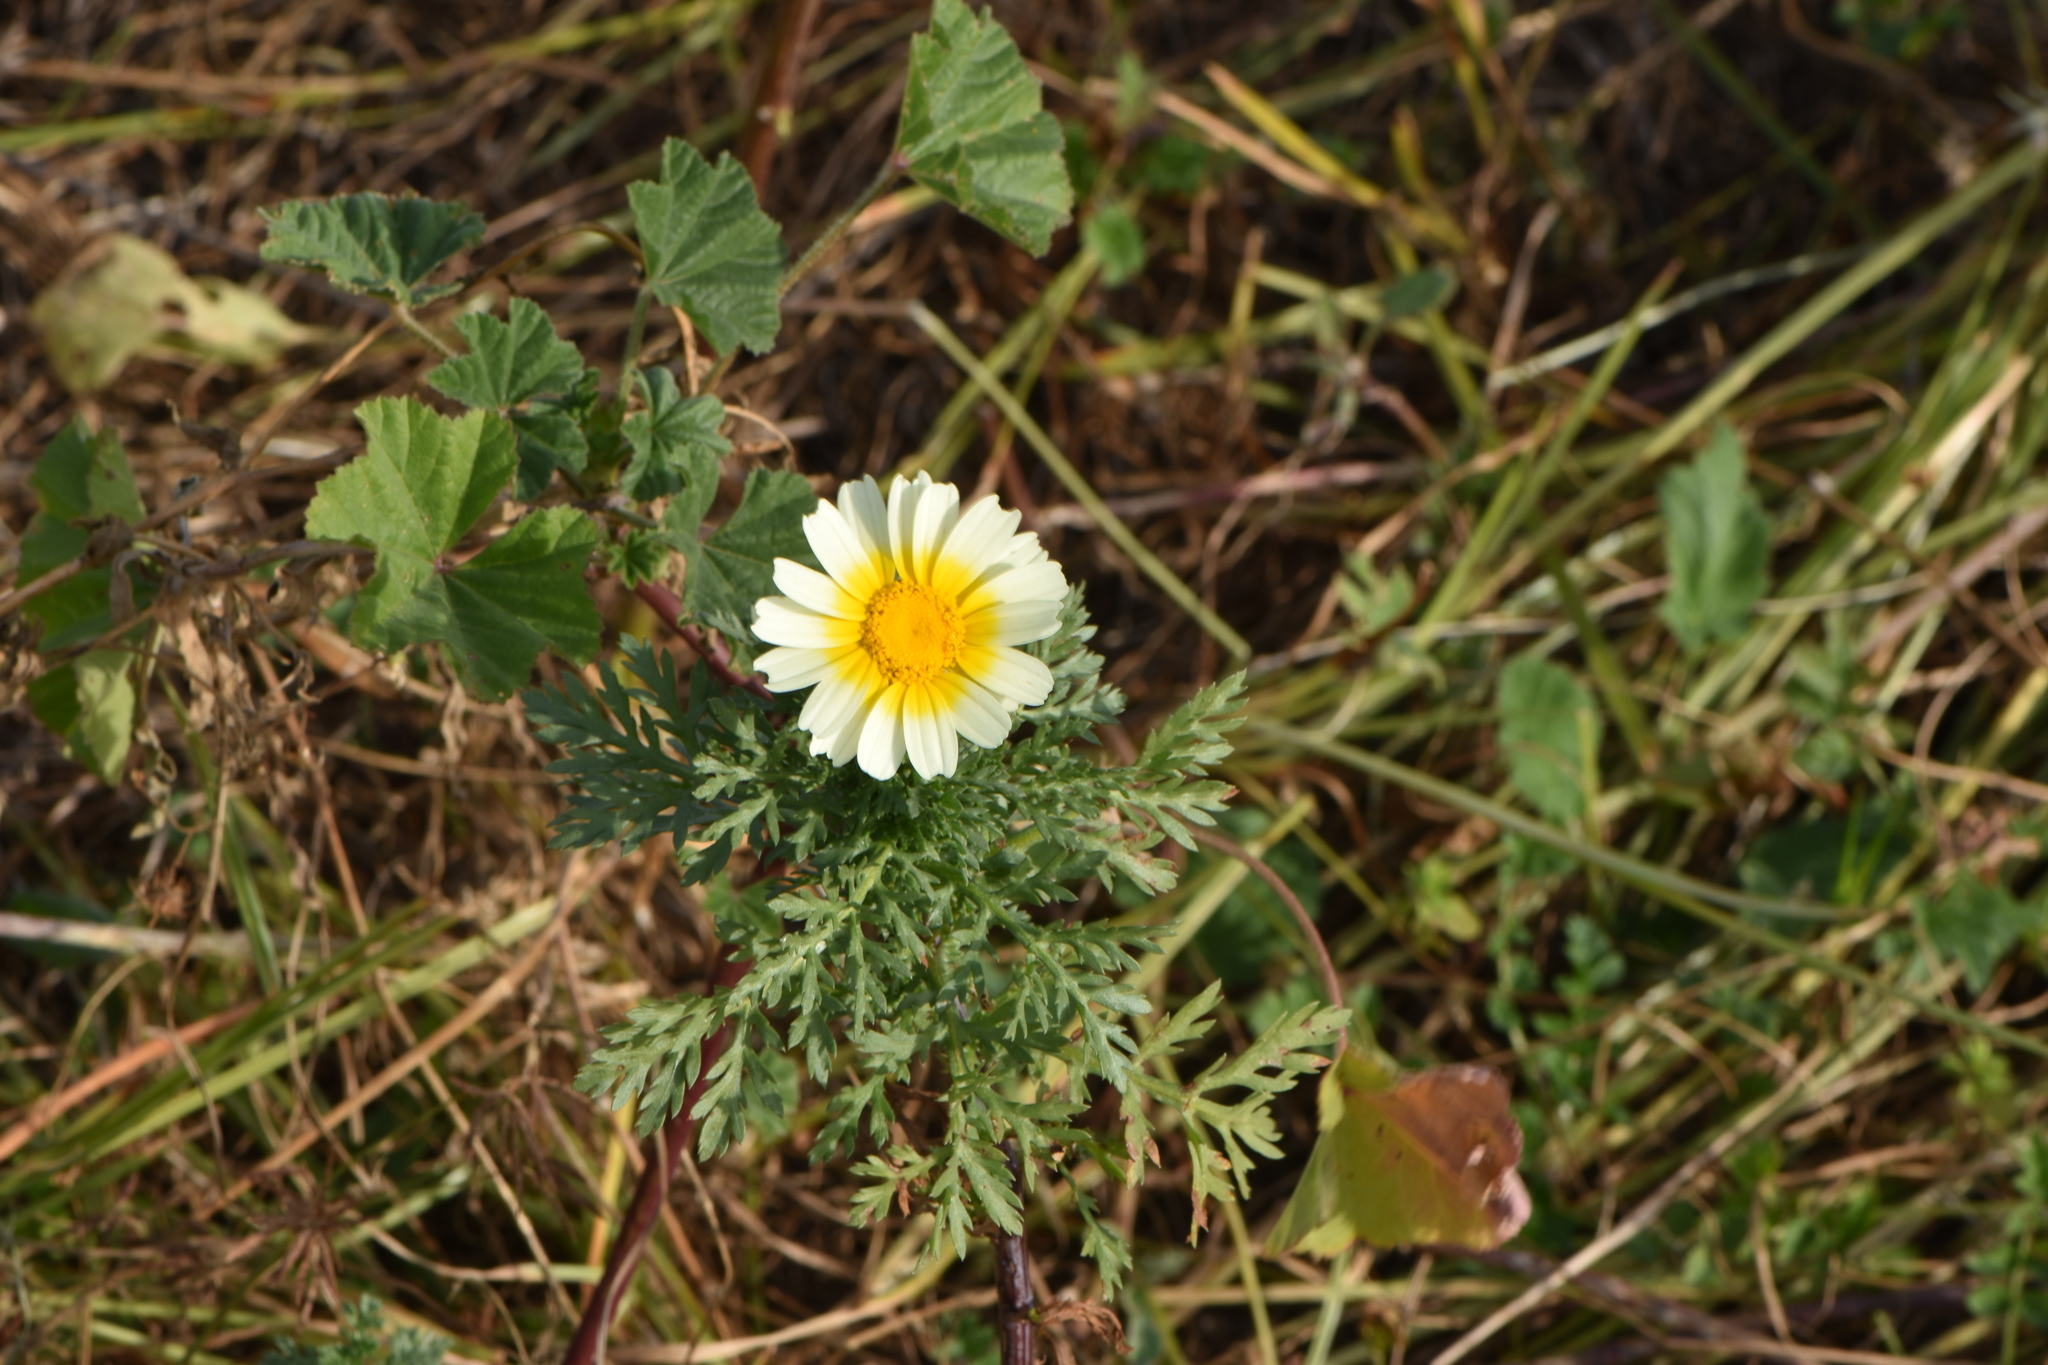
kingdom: Plantae
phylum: Tracheophyta
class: Magnoliopsida
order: Asterales
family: Asteraceae
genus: Glebionis
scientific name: Glebionis coronaria
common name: Crowndaisy
